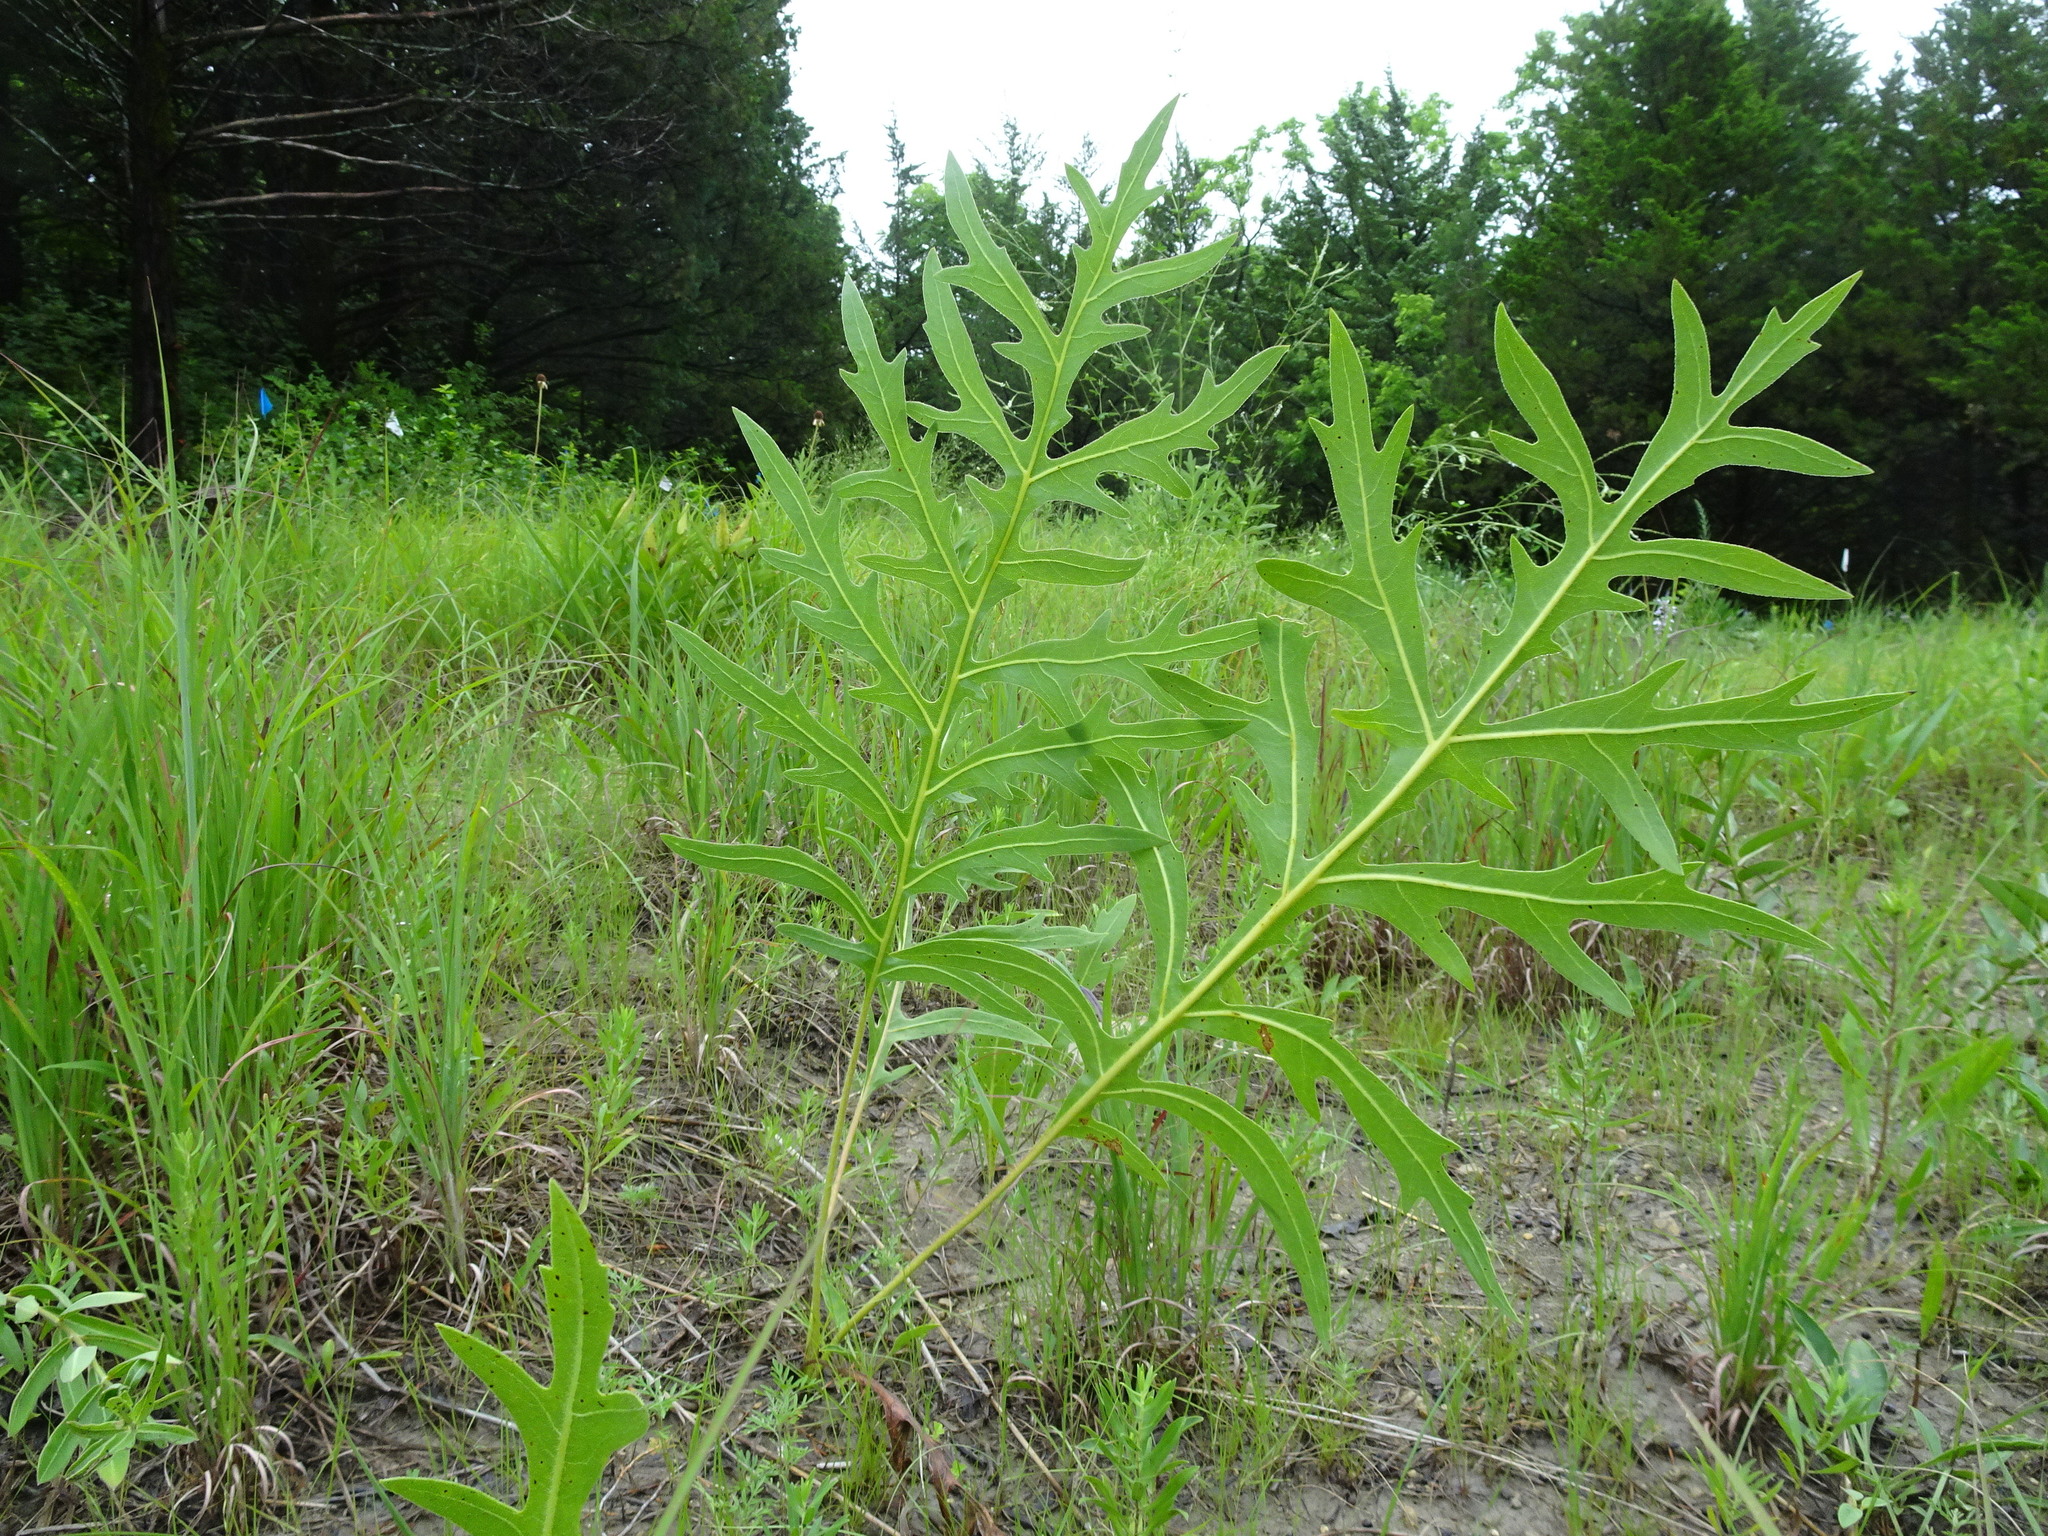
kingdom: Plantae
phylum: Tracheophyta
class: Magnoliopsida
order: Asterales
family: Asteraceae
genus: Silphium
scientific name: Silphium laciniatum
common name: Polarplant
